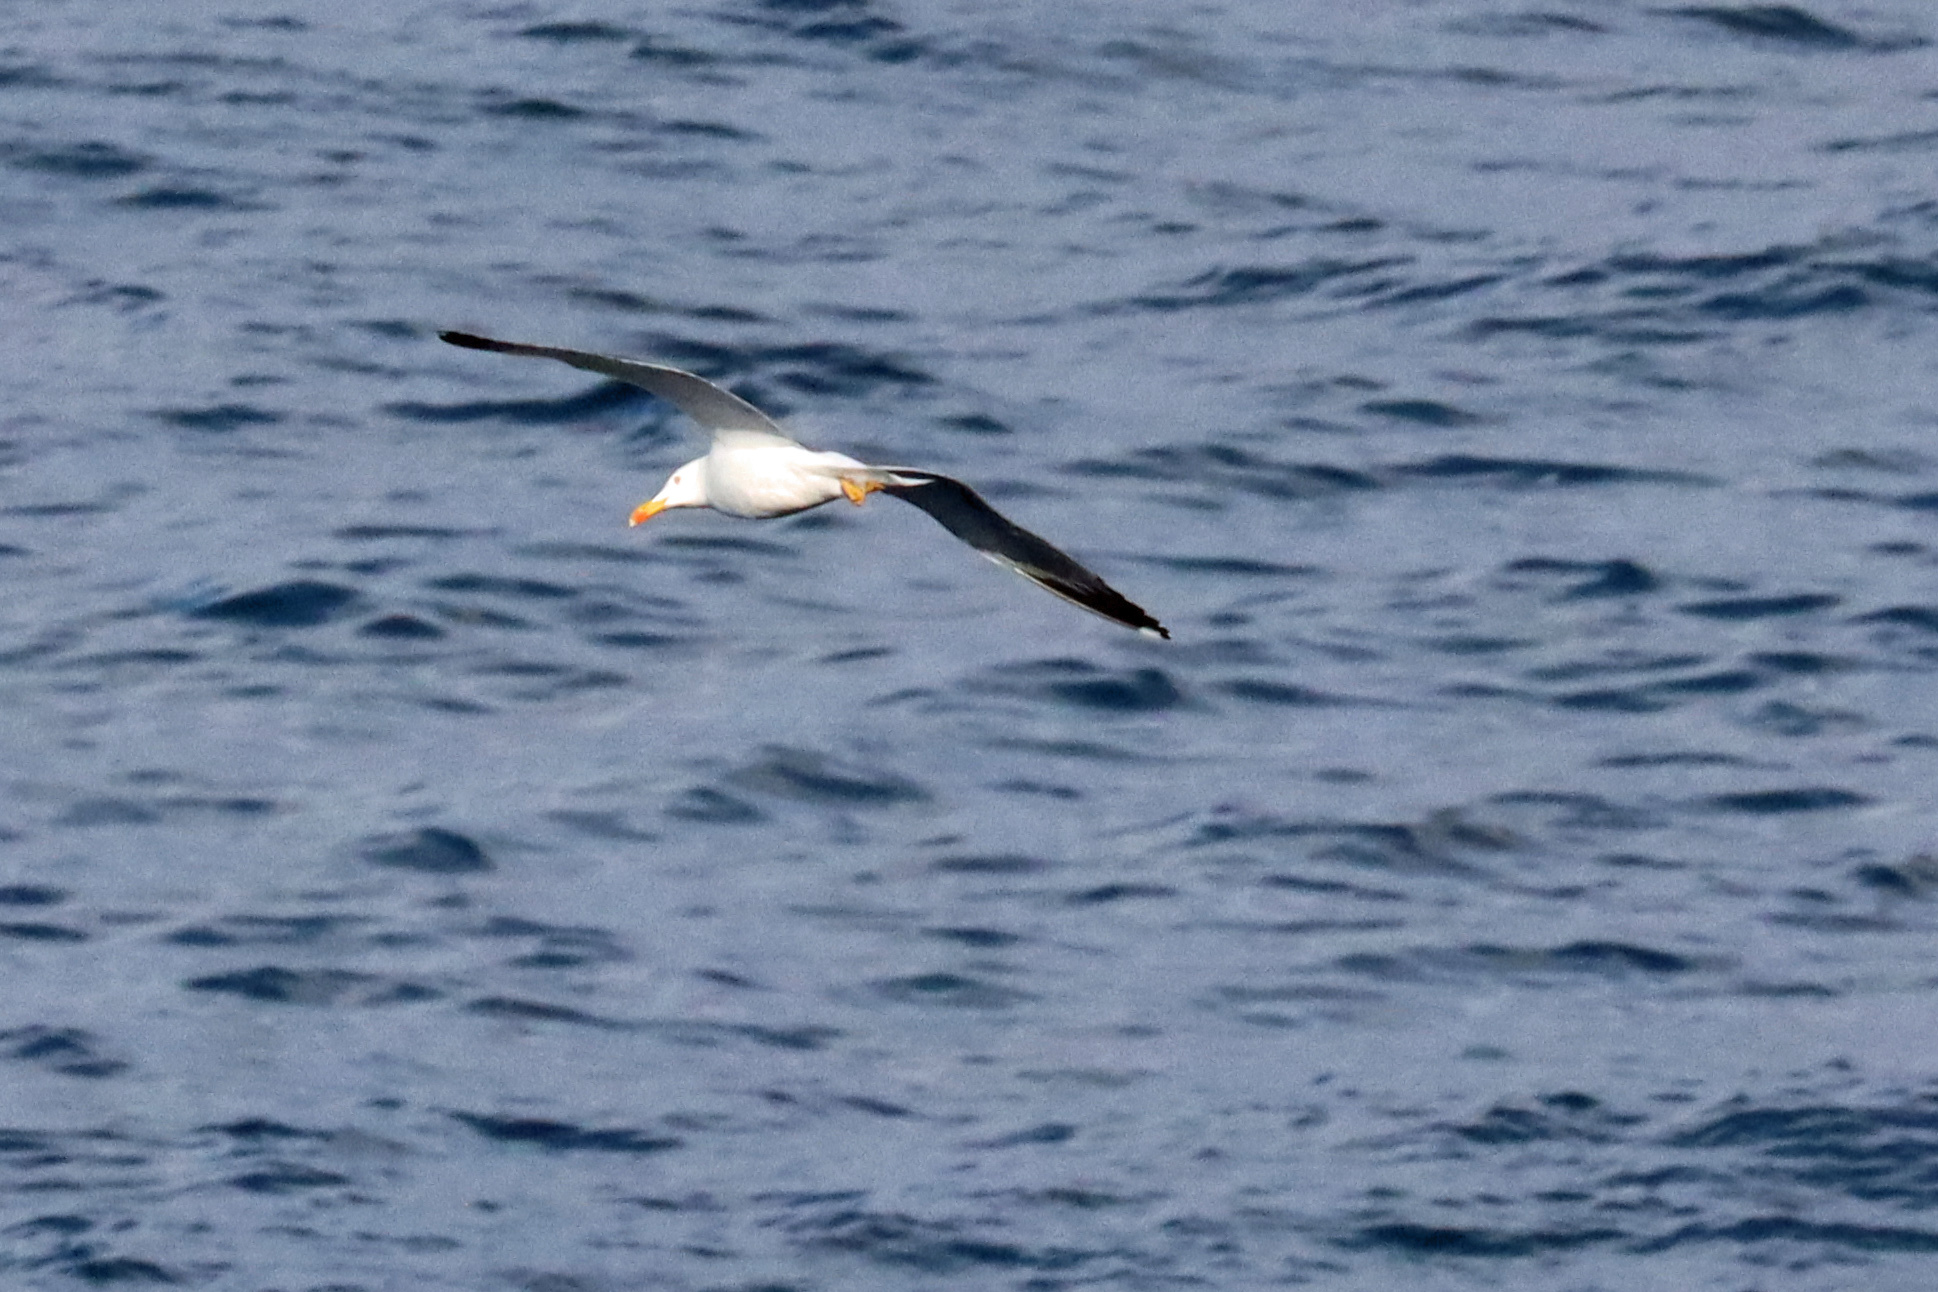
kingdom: Animalia
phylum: Chordata
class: Aves
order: Charadriiformes
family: Laridae
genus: Larus
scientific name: Larus michahellis
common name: Yellow-legged gull
